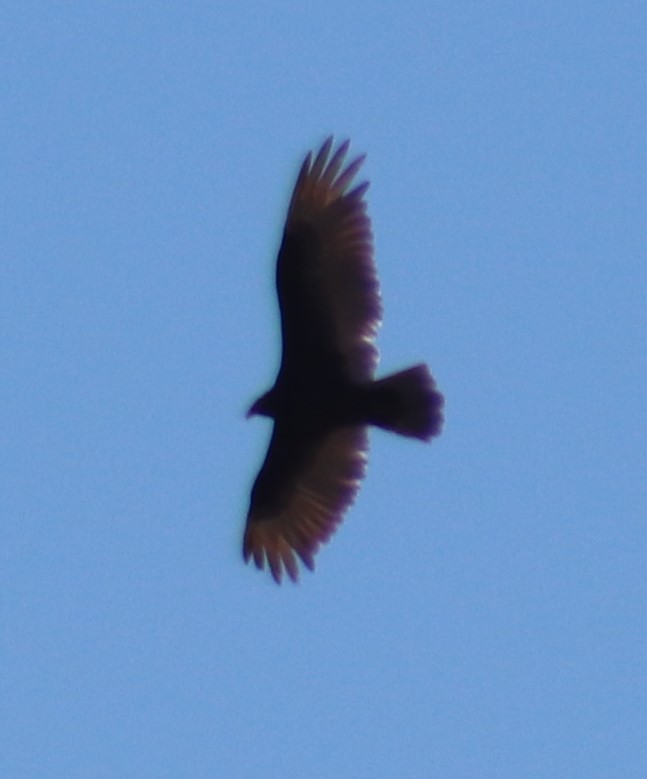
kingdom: Animalia
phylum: Chordata
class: Aves
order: Accipitriformes
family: Cathartidae
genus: Cathartes
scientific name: Cathartes aura
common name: Turkey vulture
